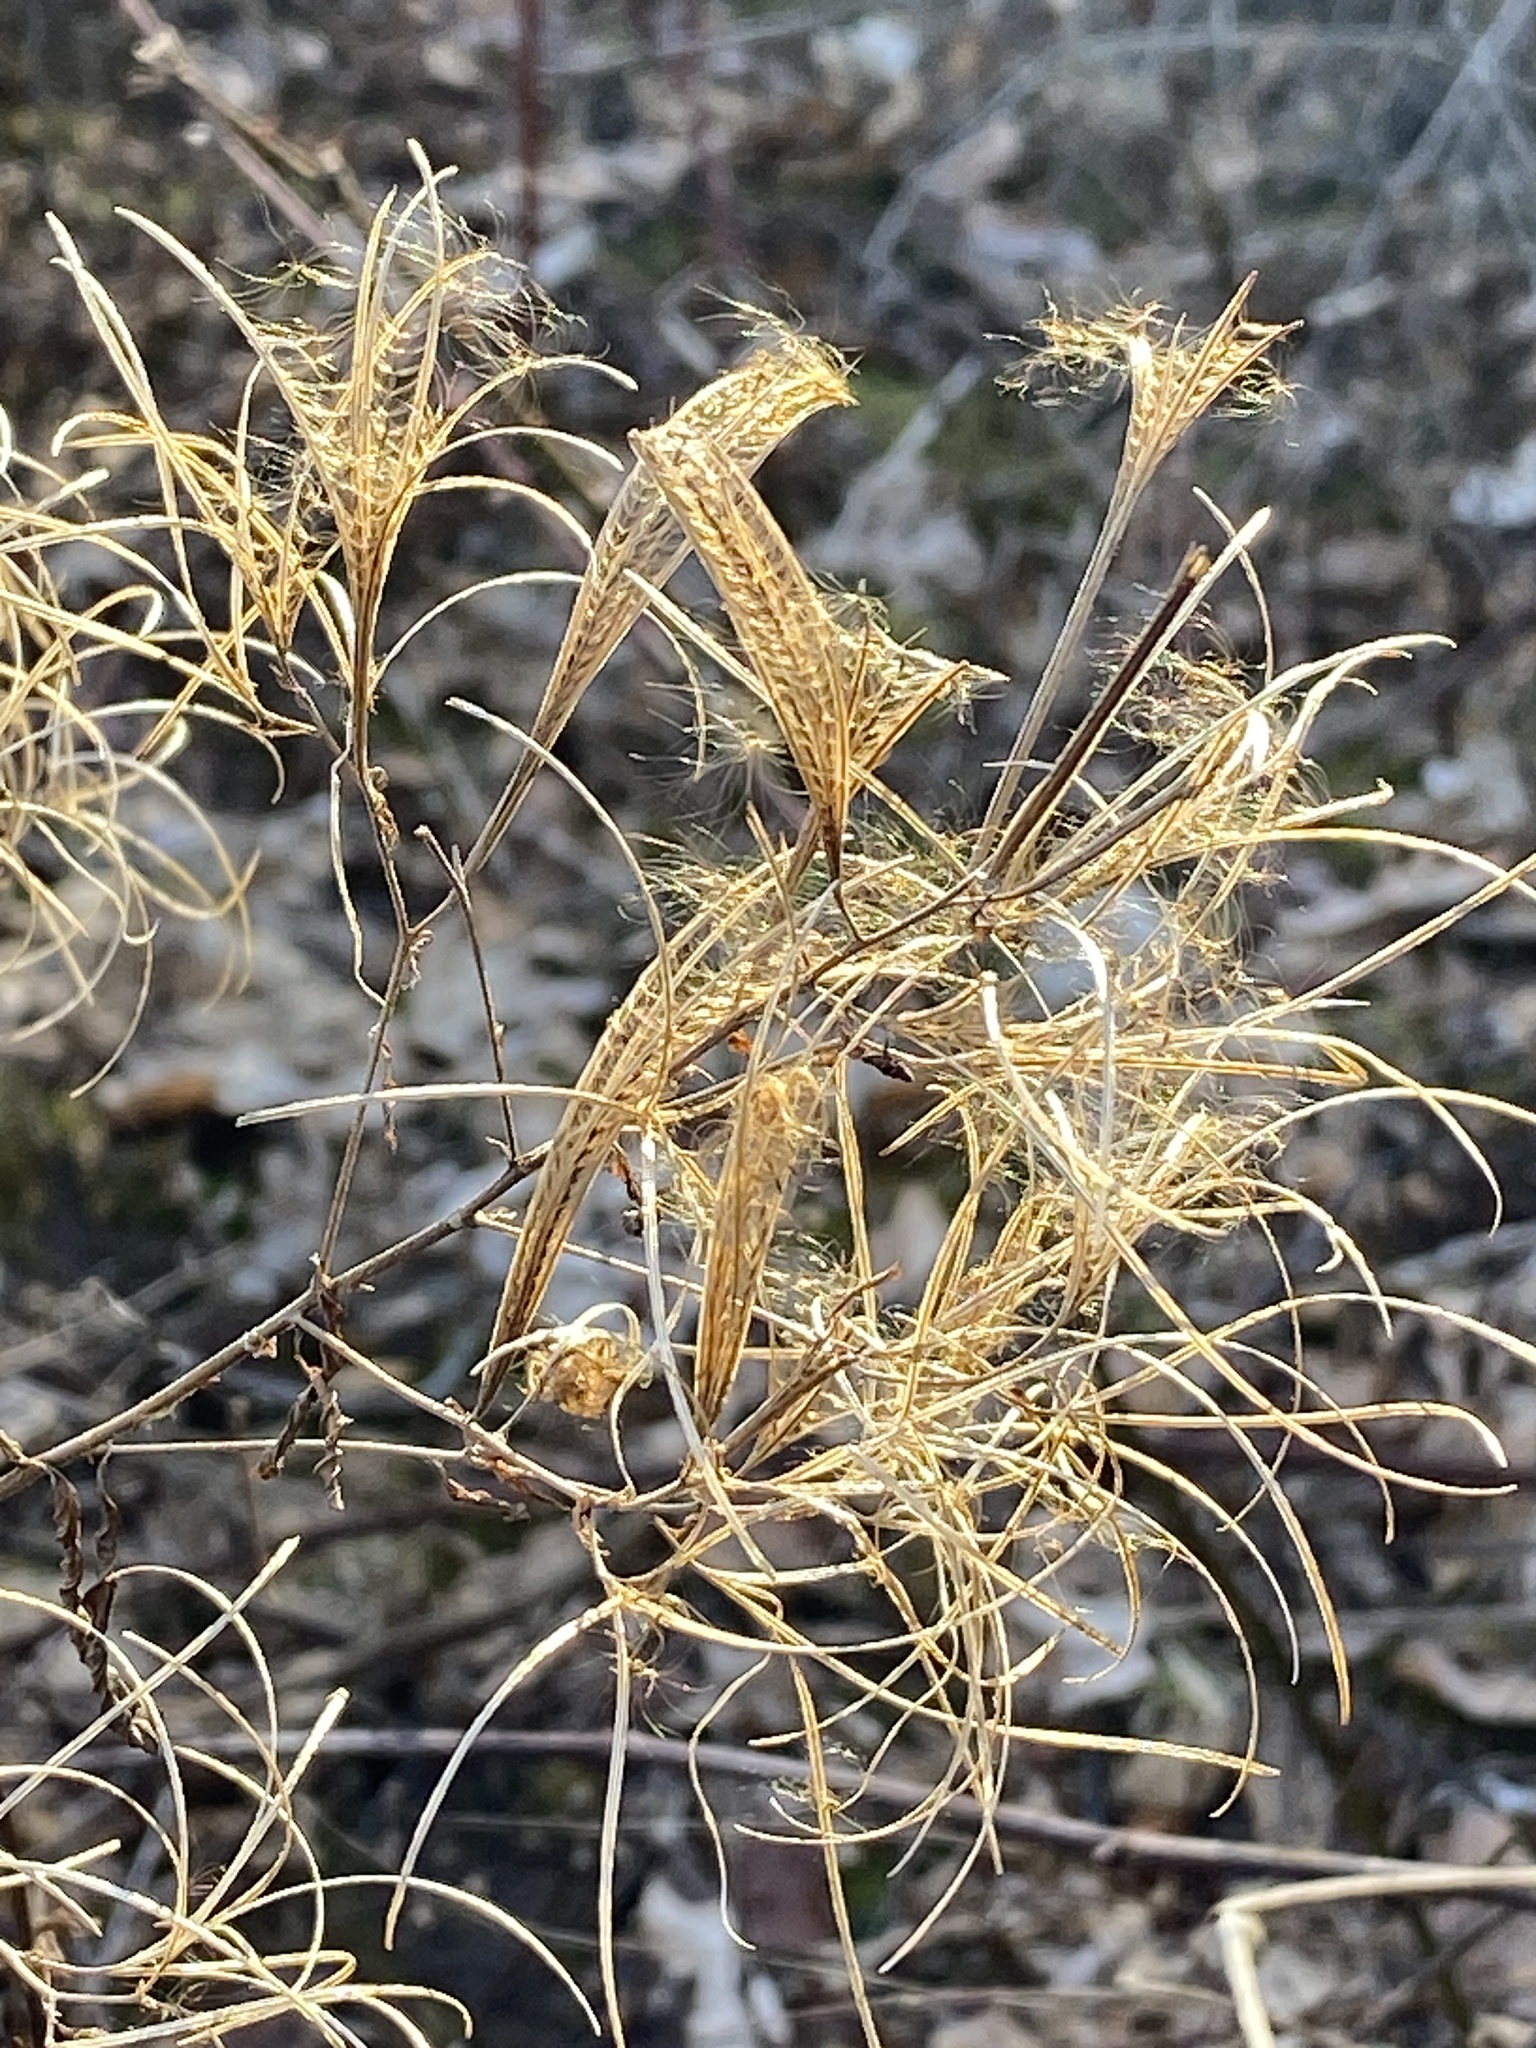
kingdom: Plantae
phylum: Tracheophyta
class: Magnoliopsida
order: Myrtales
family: Onagraceae
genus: Epilobium
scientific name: Epilobium coloratum
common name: Bronze willowherb
